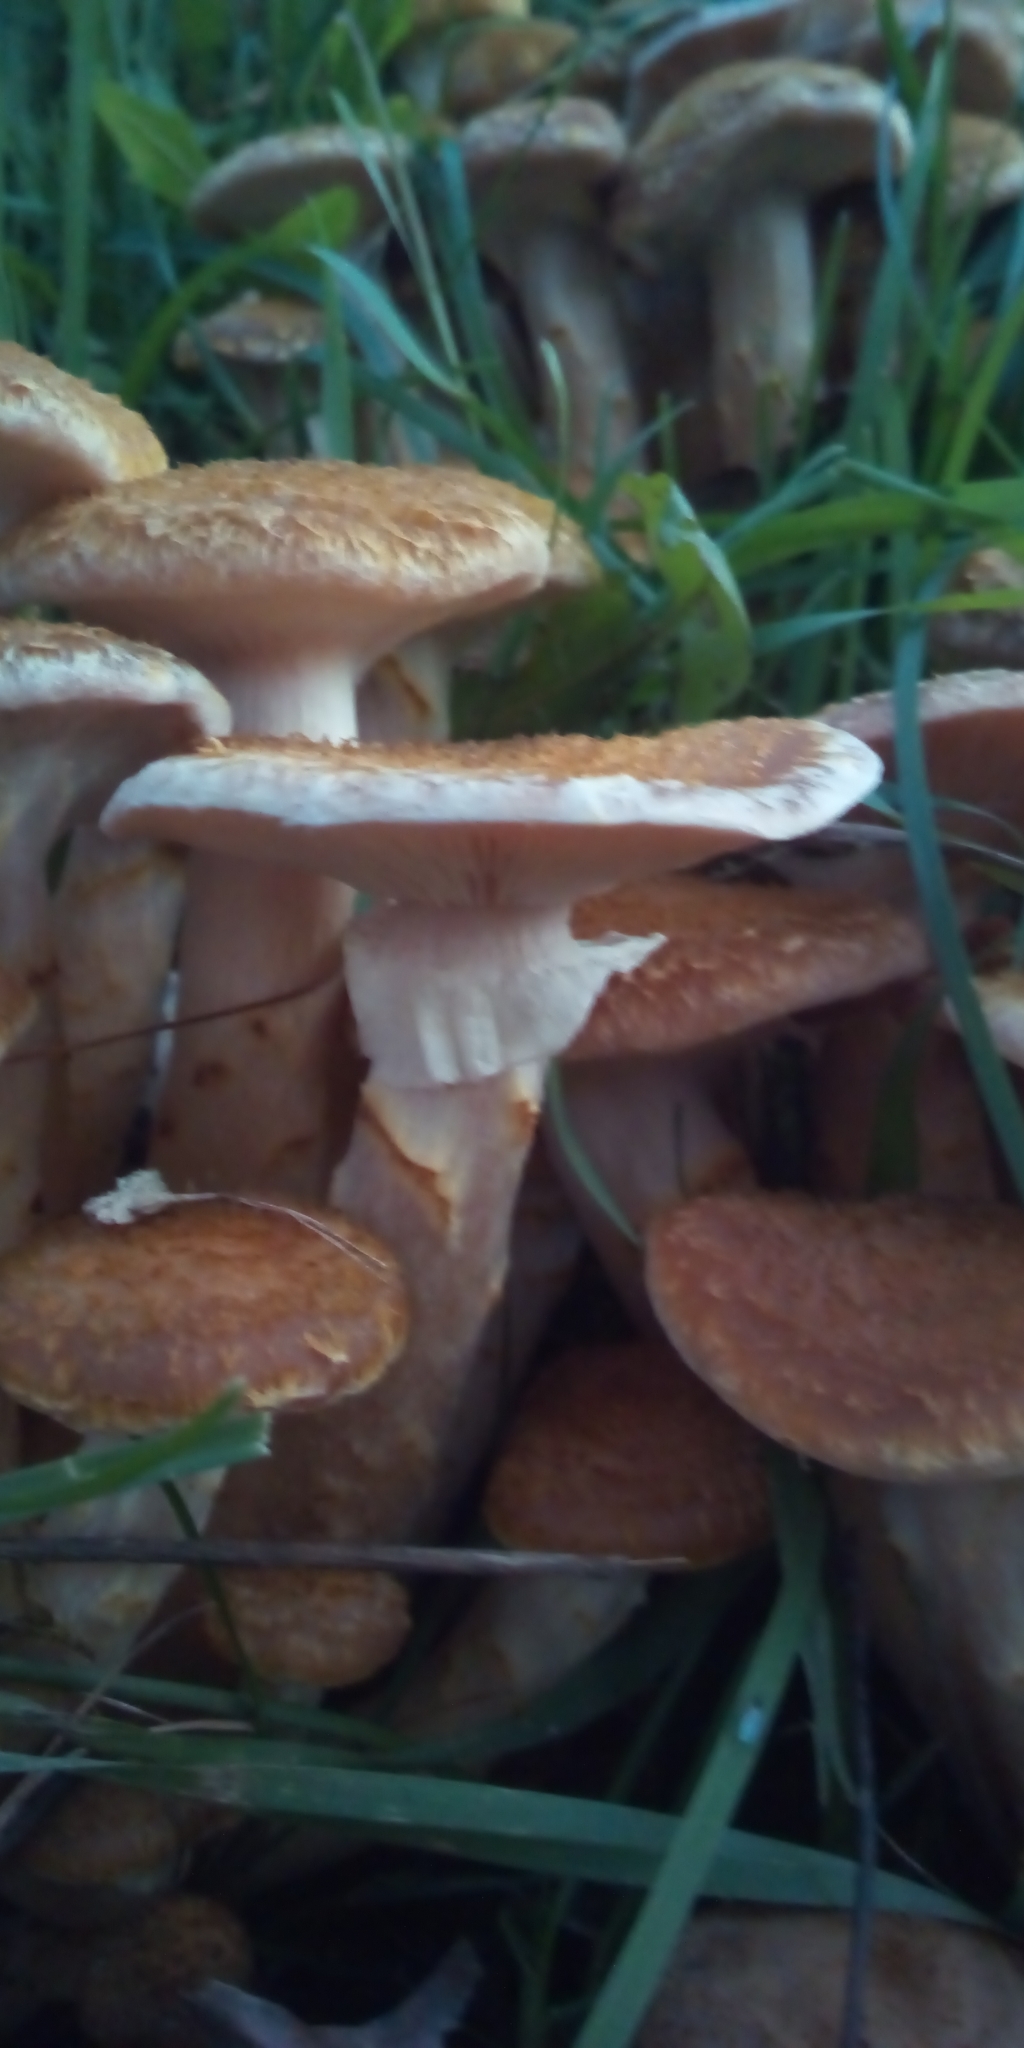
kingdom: Fungi
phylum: Basidiomycota
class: Agaricomycetes
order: Agaricales
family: Physalacriaceae
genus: Armillaria
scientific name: Armillaria mellea
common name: Honey fungus
